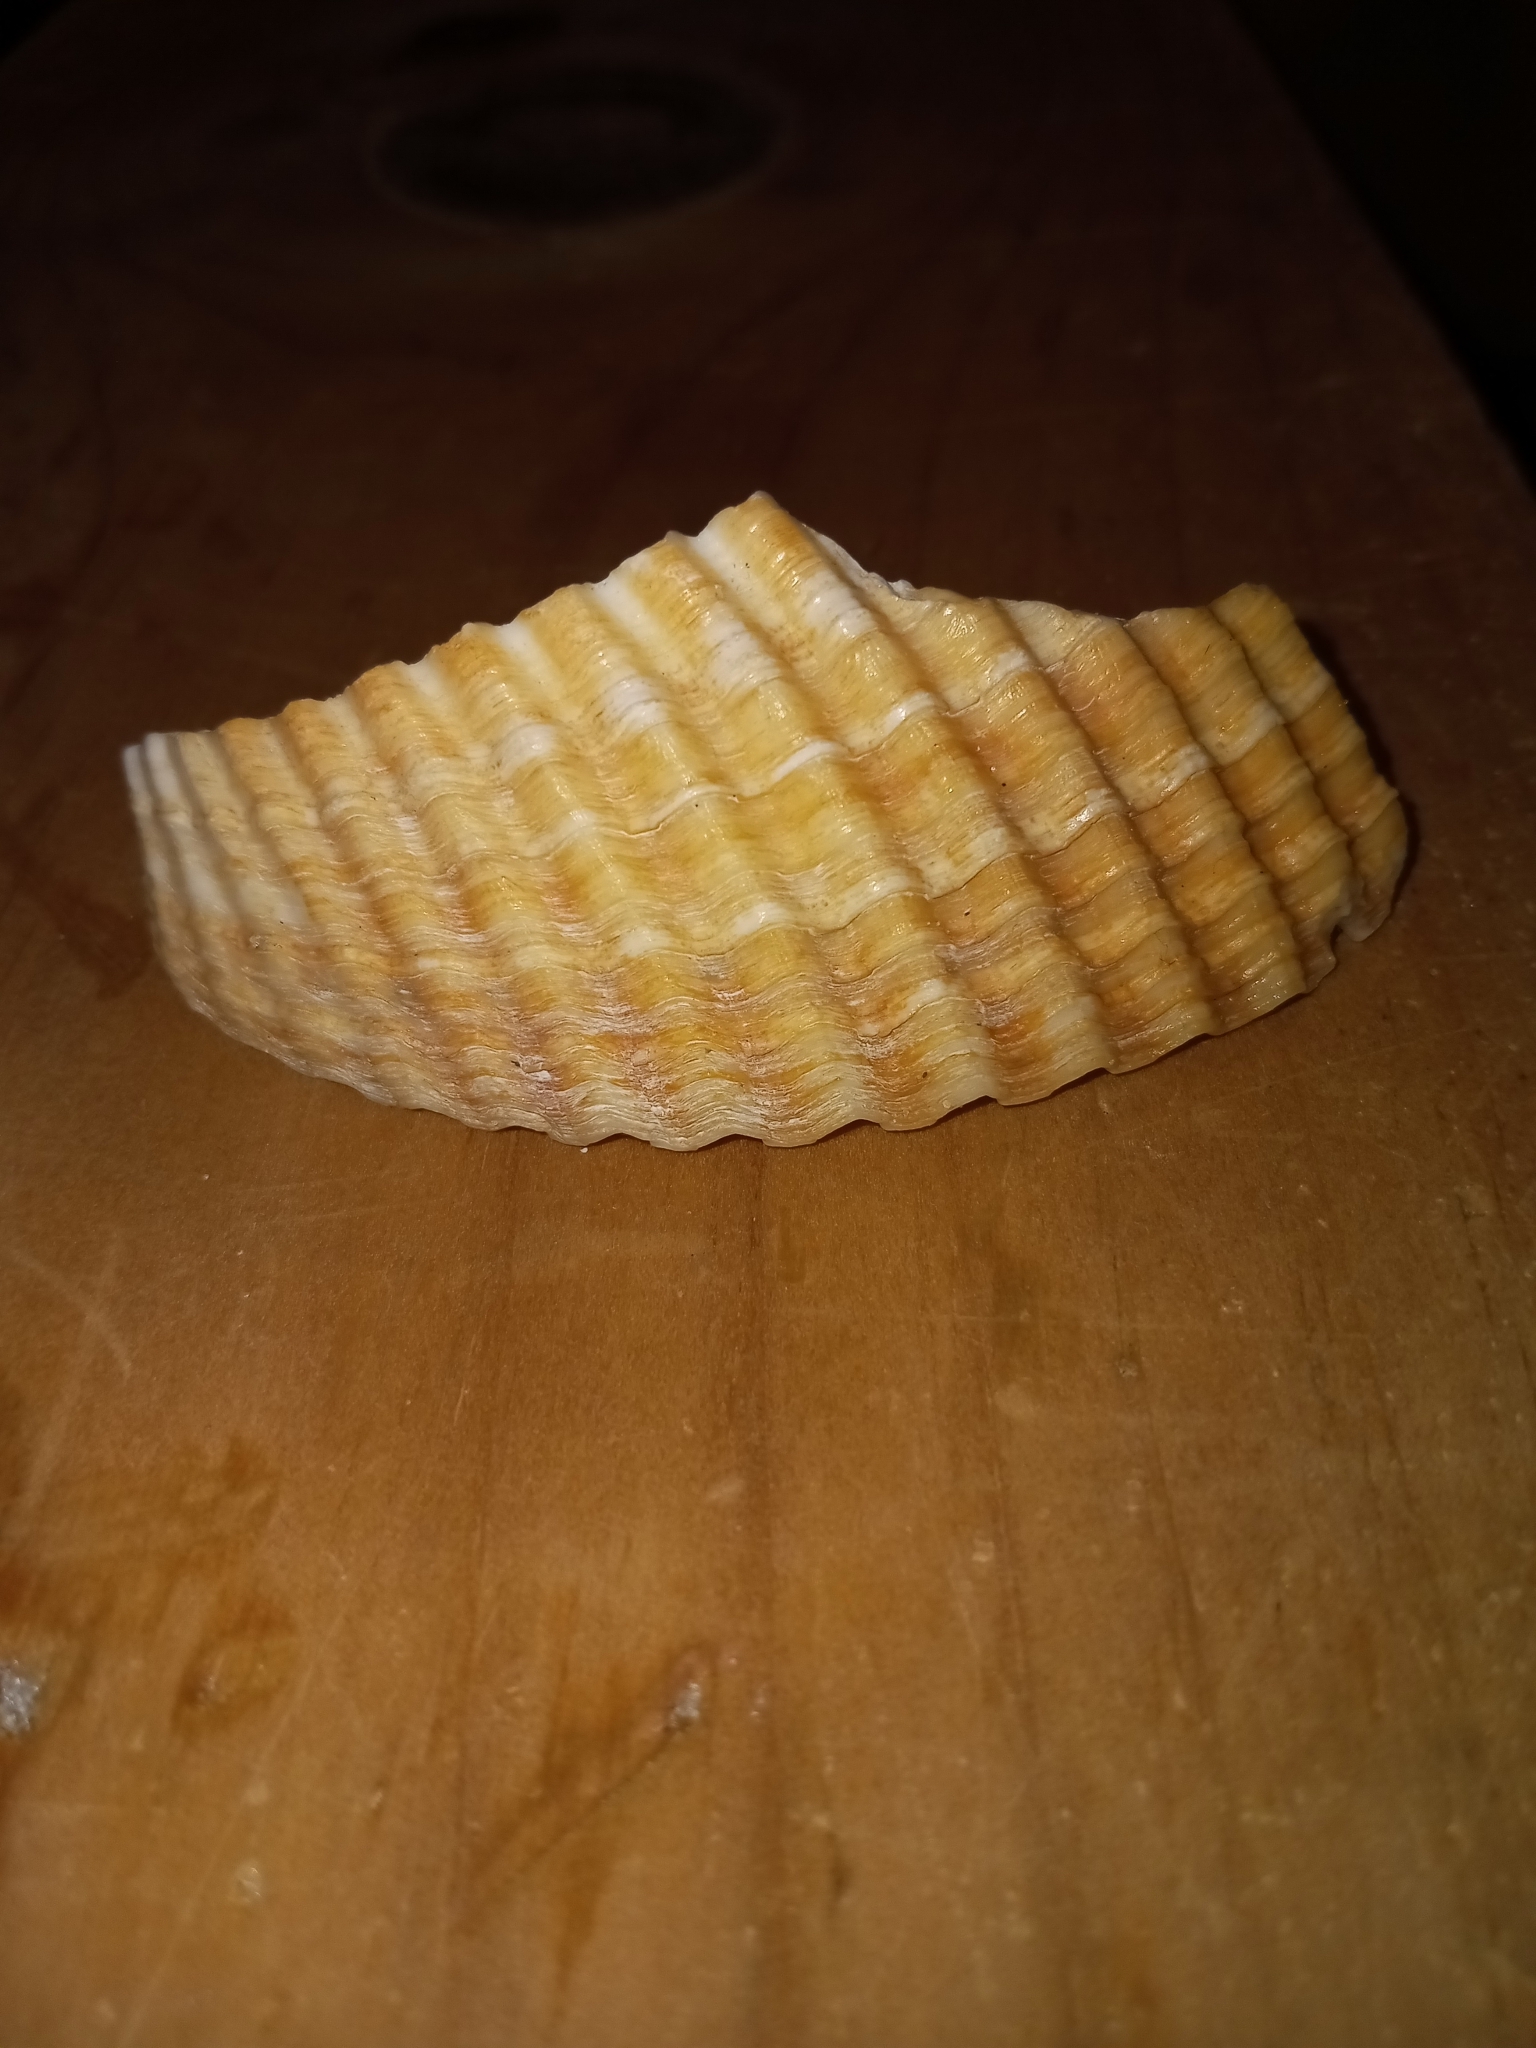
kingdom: Animalia
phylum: Mollusca
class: Bivalvia
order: Cardiida
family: Cardiidae
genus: Dinocardium
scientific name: Dinocardium robustum
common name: Atlantic giant cockle
